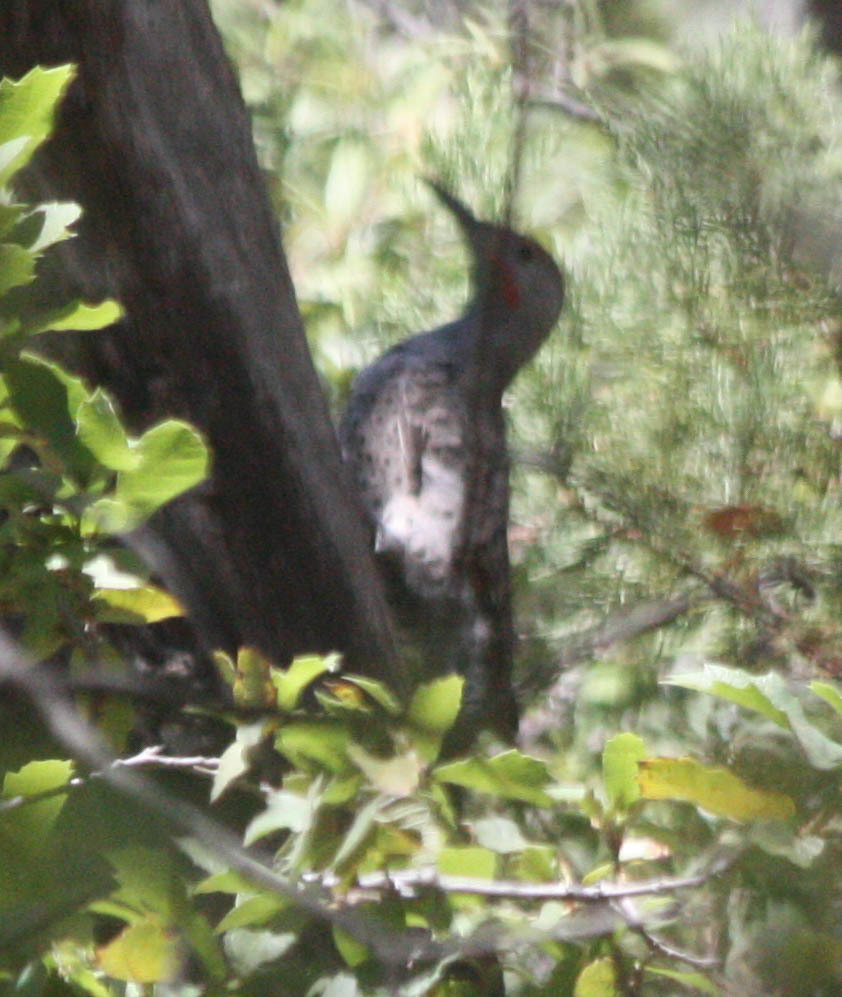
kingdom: Animalia
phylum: Chordata
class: Aves
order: Piciformes
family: Picidae
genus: Colaptes
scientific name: Colaptes auratus
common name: Northern flicker
